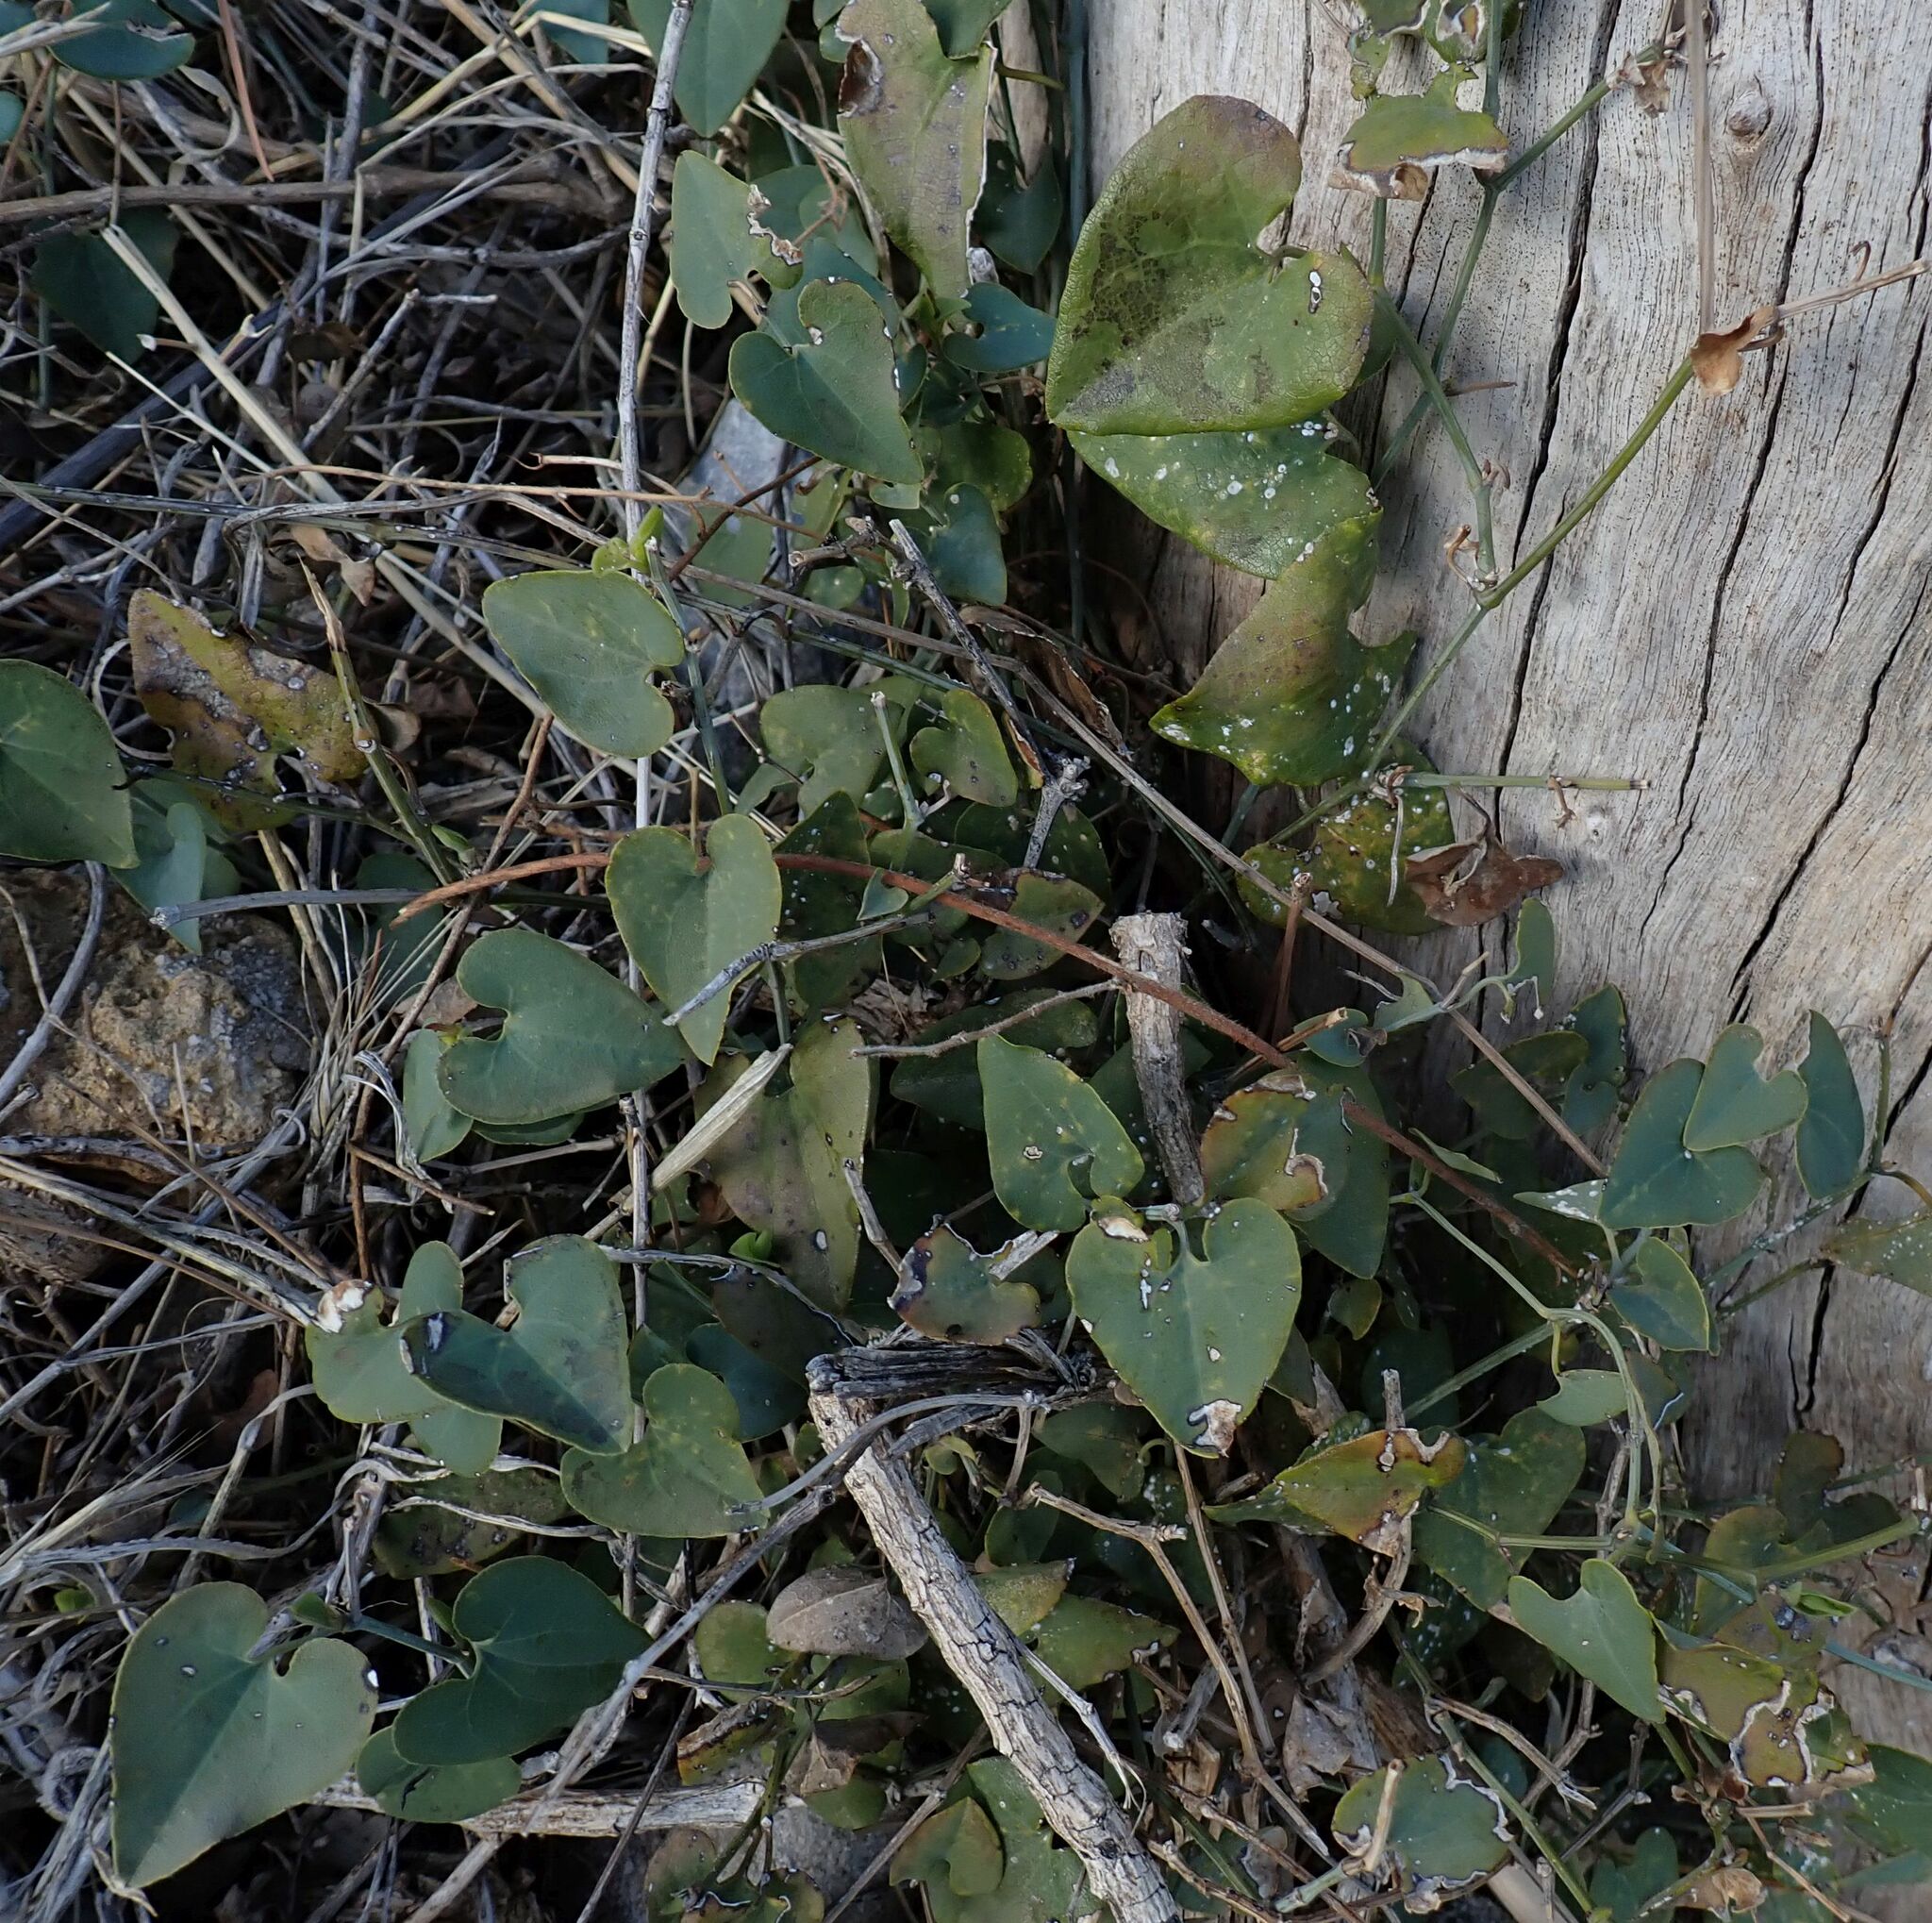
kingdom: Plantae
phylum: Tracheophyta
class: Magnoliopsida
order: Piperales
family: Aristolochiaceae
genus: Aristolochia
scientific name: Aristolochia baetica
